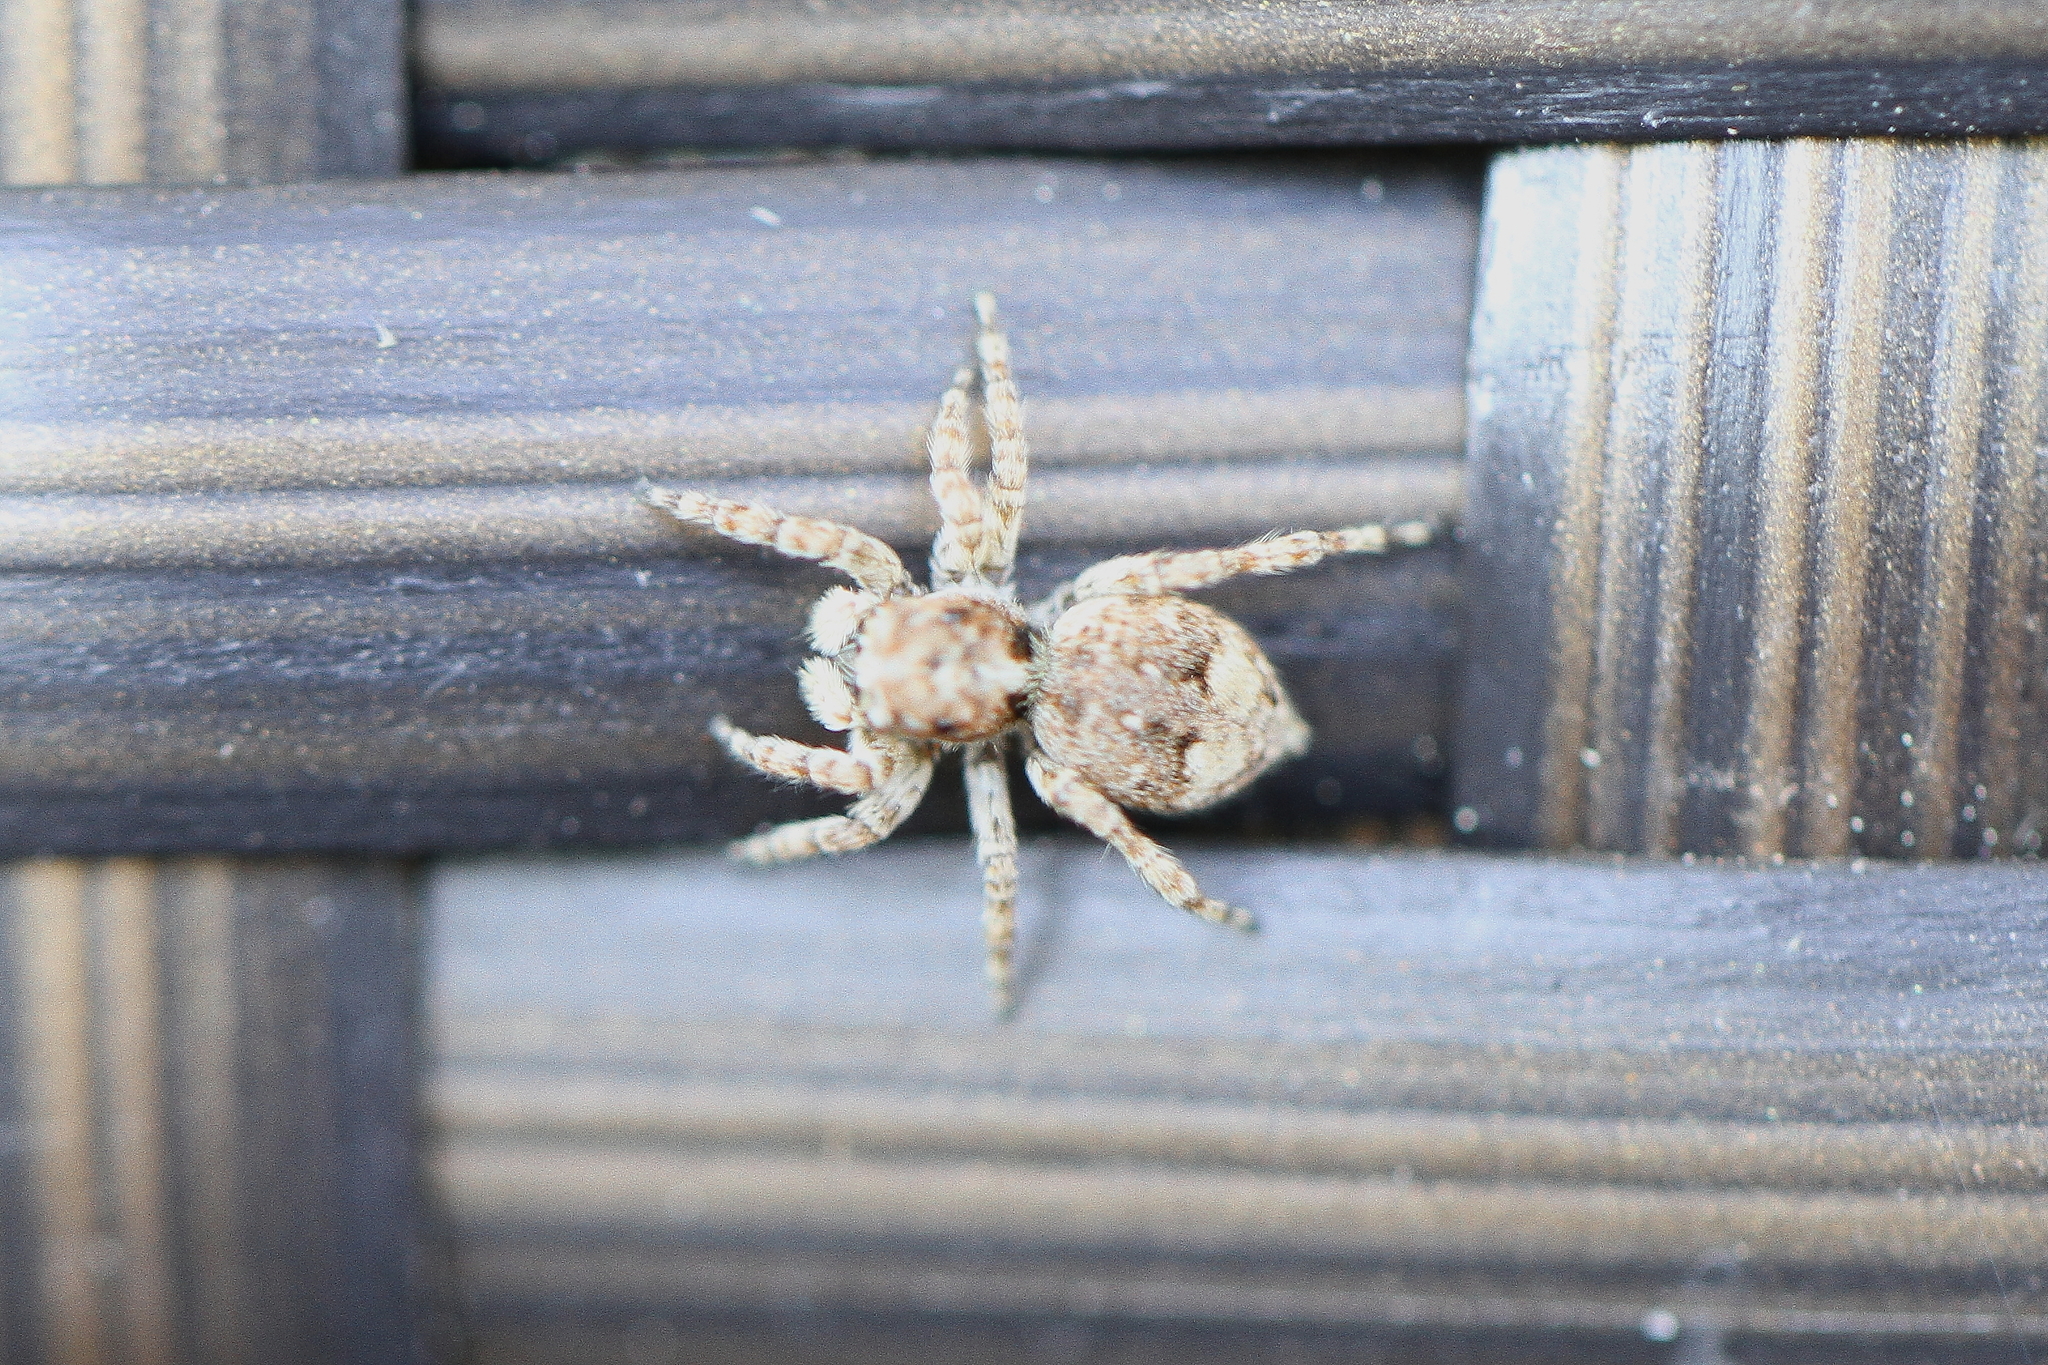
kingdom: Animalia
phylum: Arthropoda
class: Arachnida
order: Araneae
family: Salticidae
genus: Attulus
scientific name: Attulus fasciger
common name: Asiatic wall jumping spider
